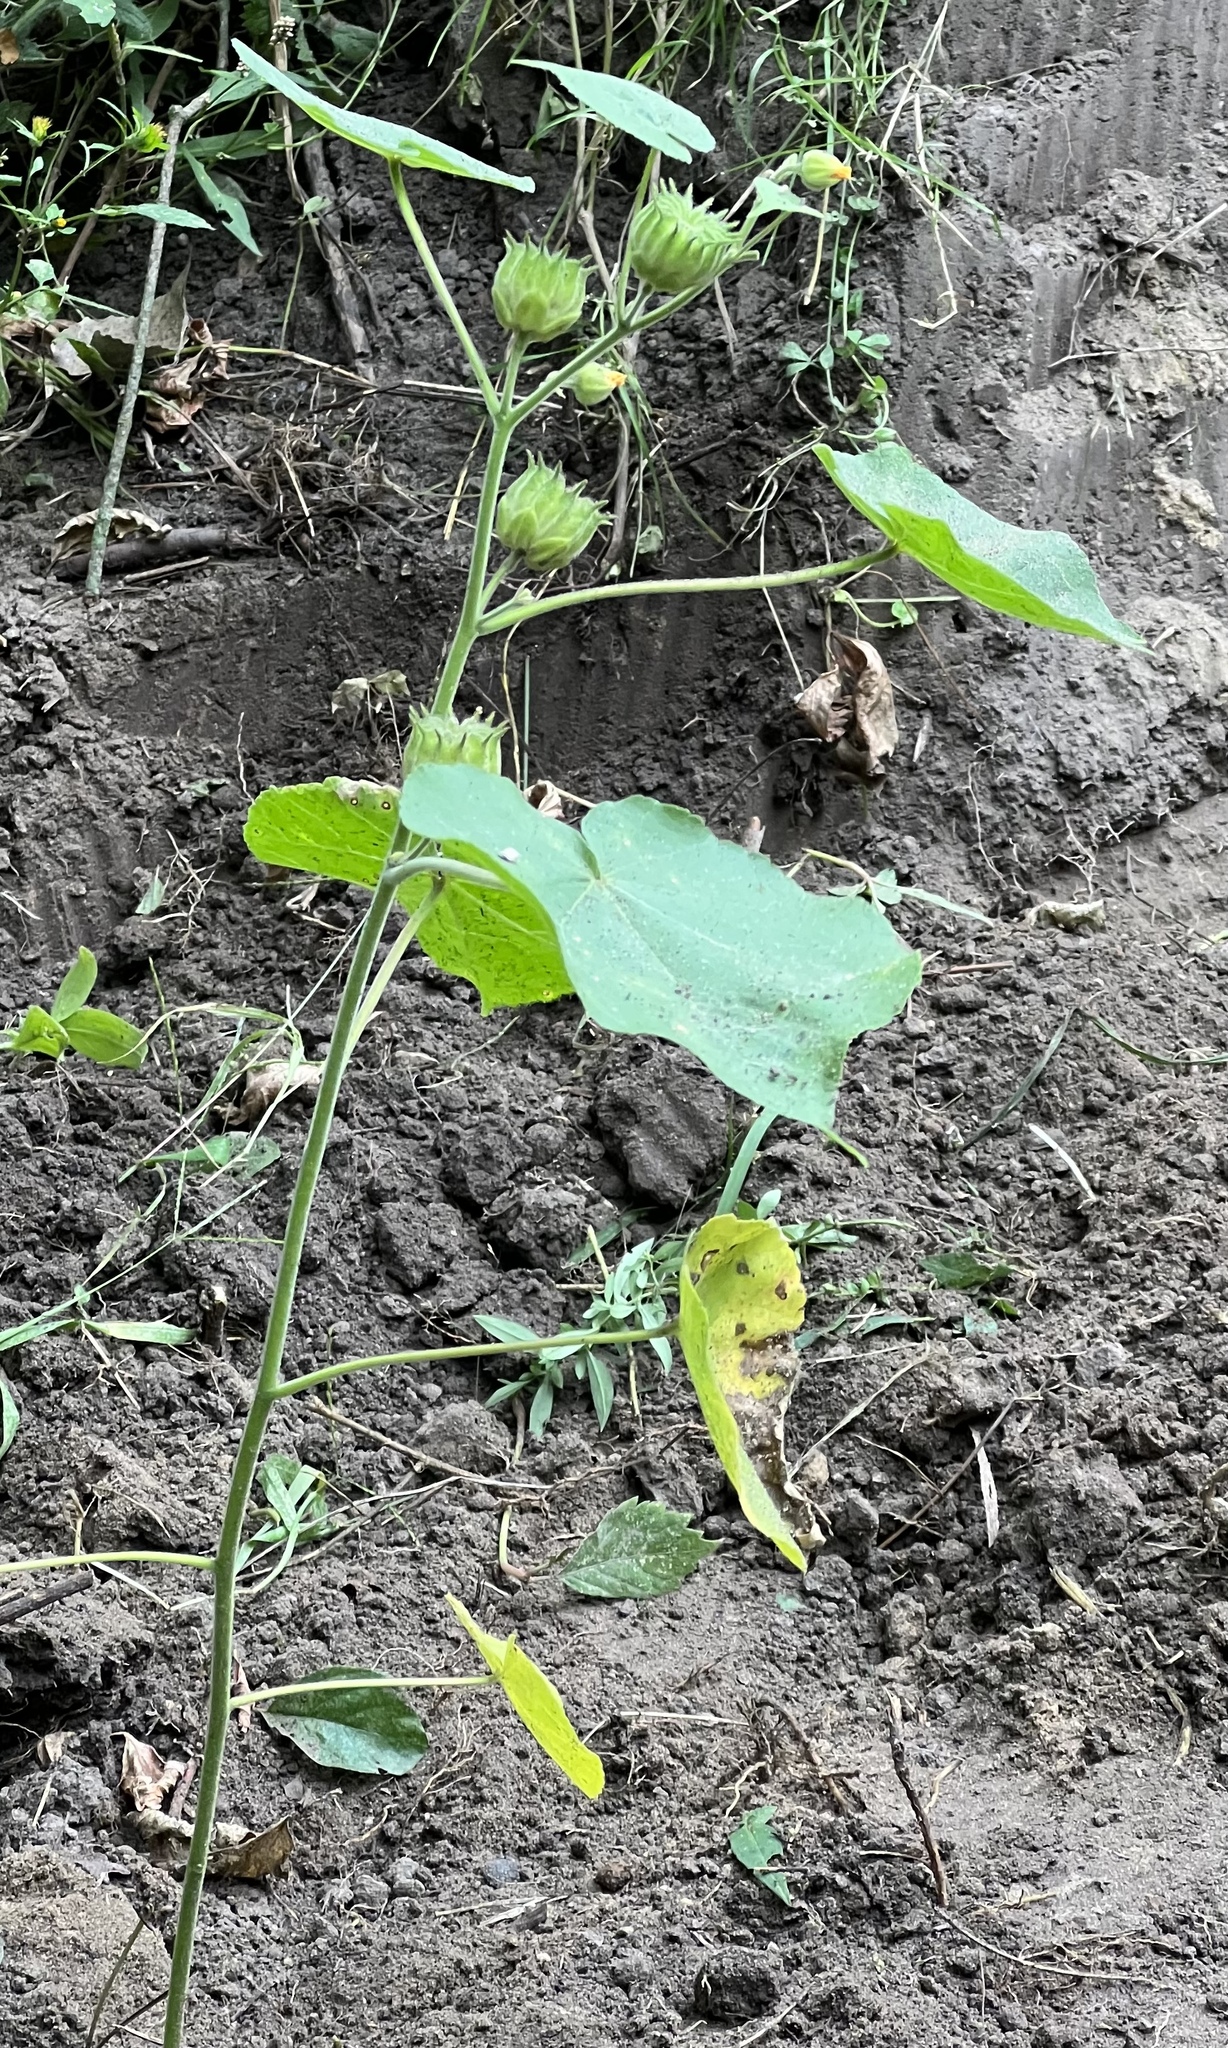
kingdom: Plantae
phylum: Tracheophyta
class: Magnoliopsida
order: Malvales
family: Malvaceae
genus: Abutilon
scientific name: Abutilon theophrasti
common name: Velvetleaf
